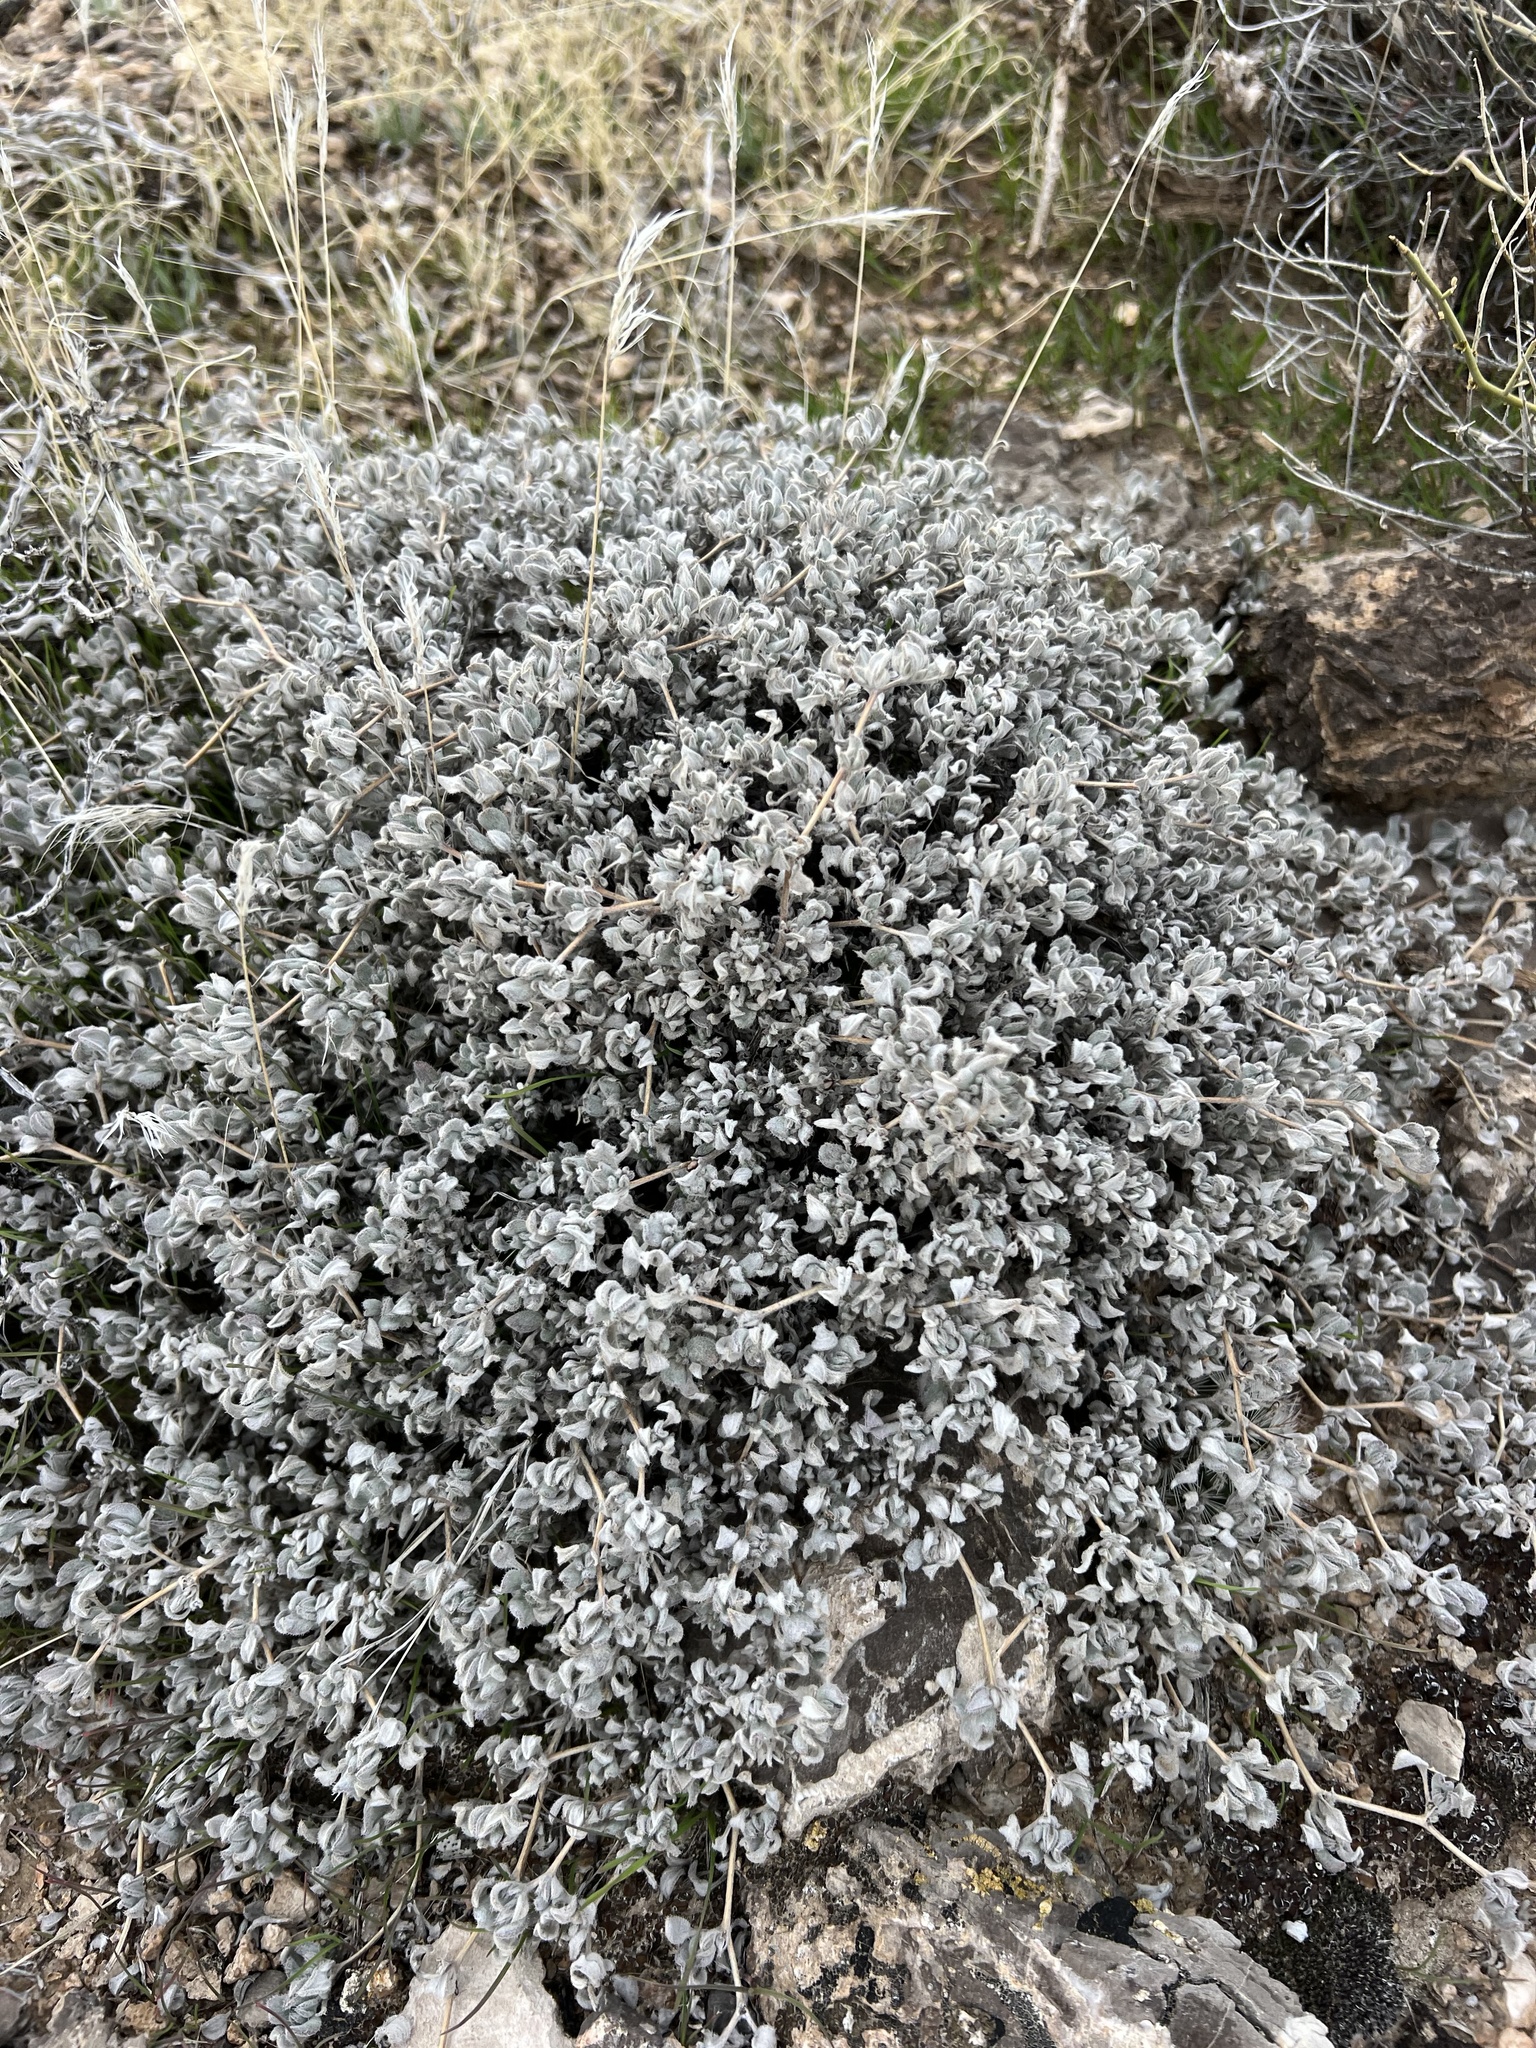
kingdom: Plantae
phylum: Tracheophyta
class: Magnoliopsida
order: Boraginales
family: Ehretiaceae
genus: Tiquilia
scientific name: Tiquilia canescens
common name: Hairy tiquilia
